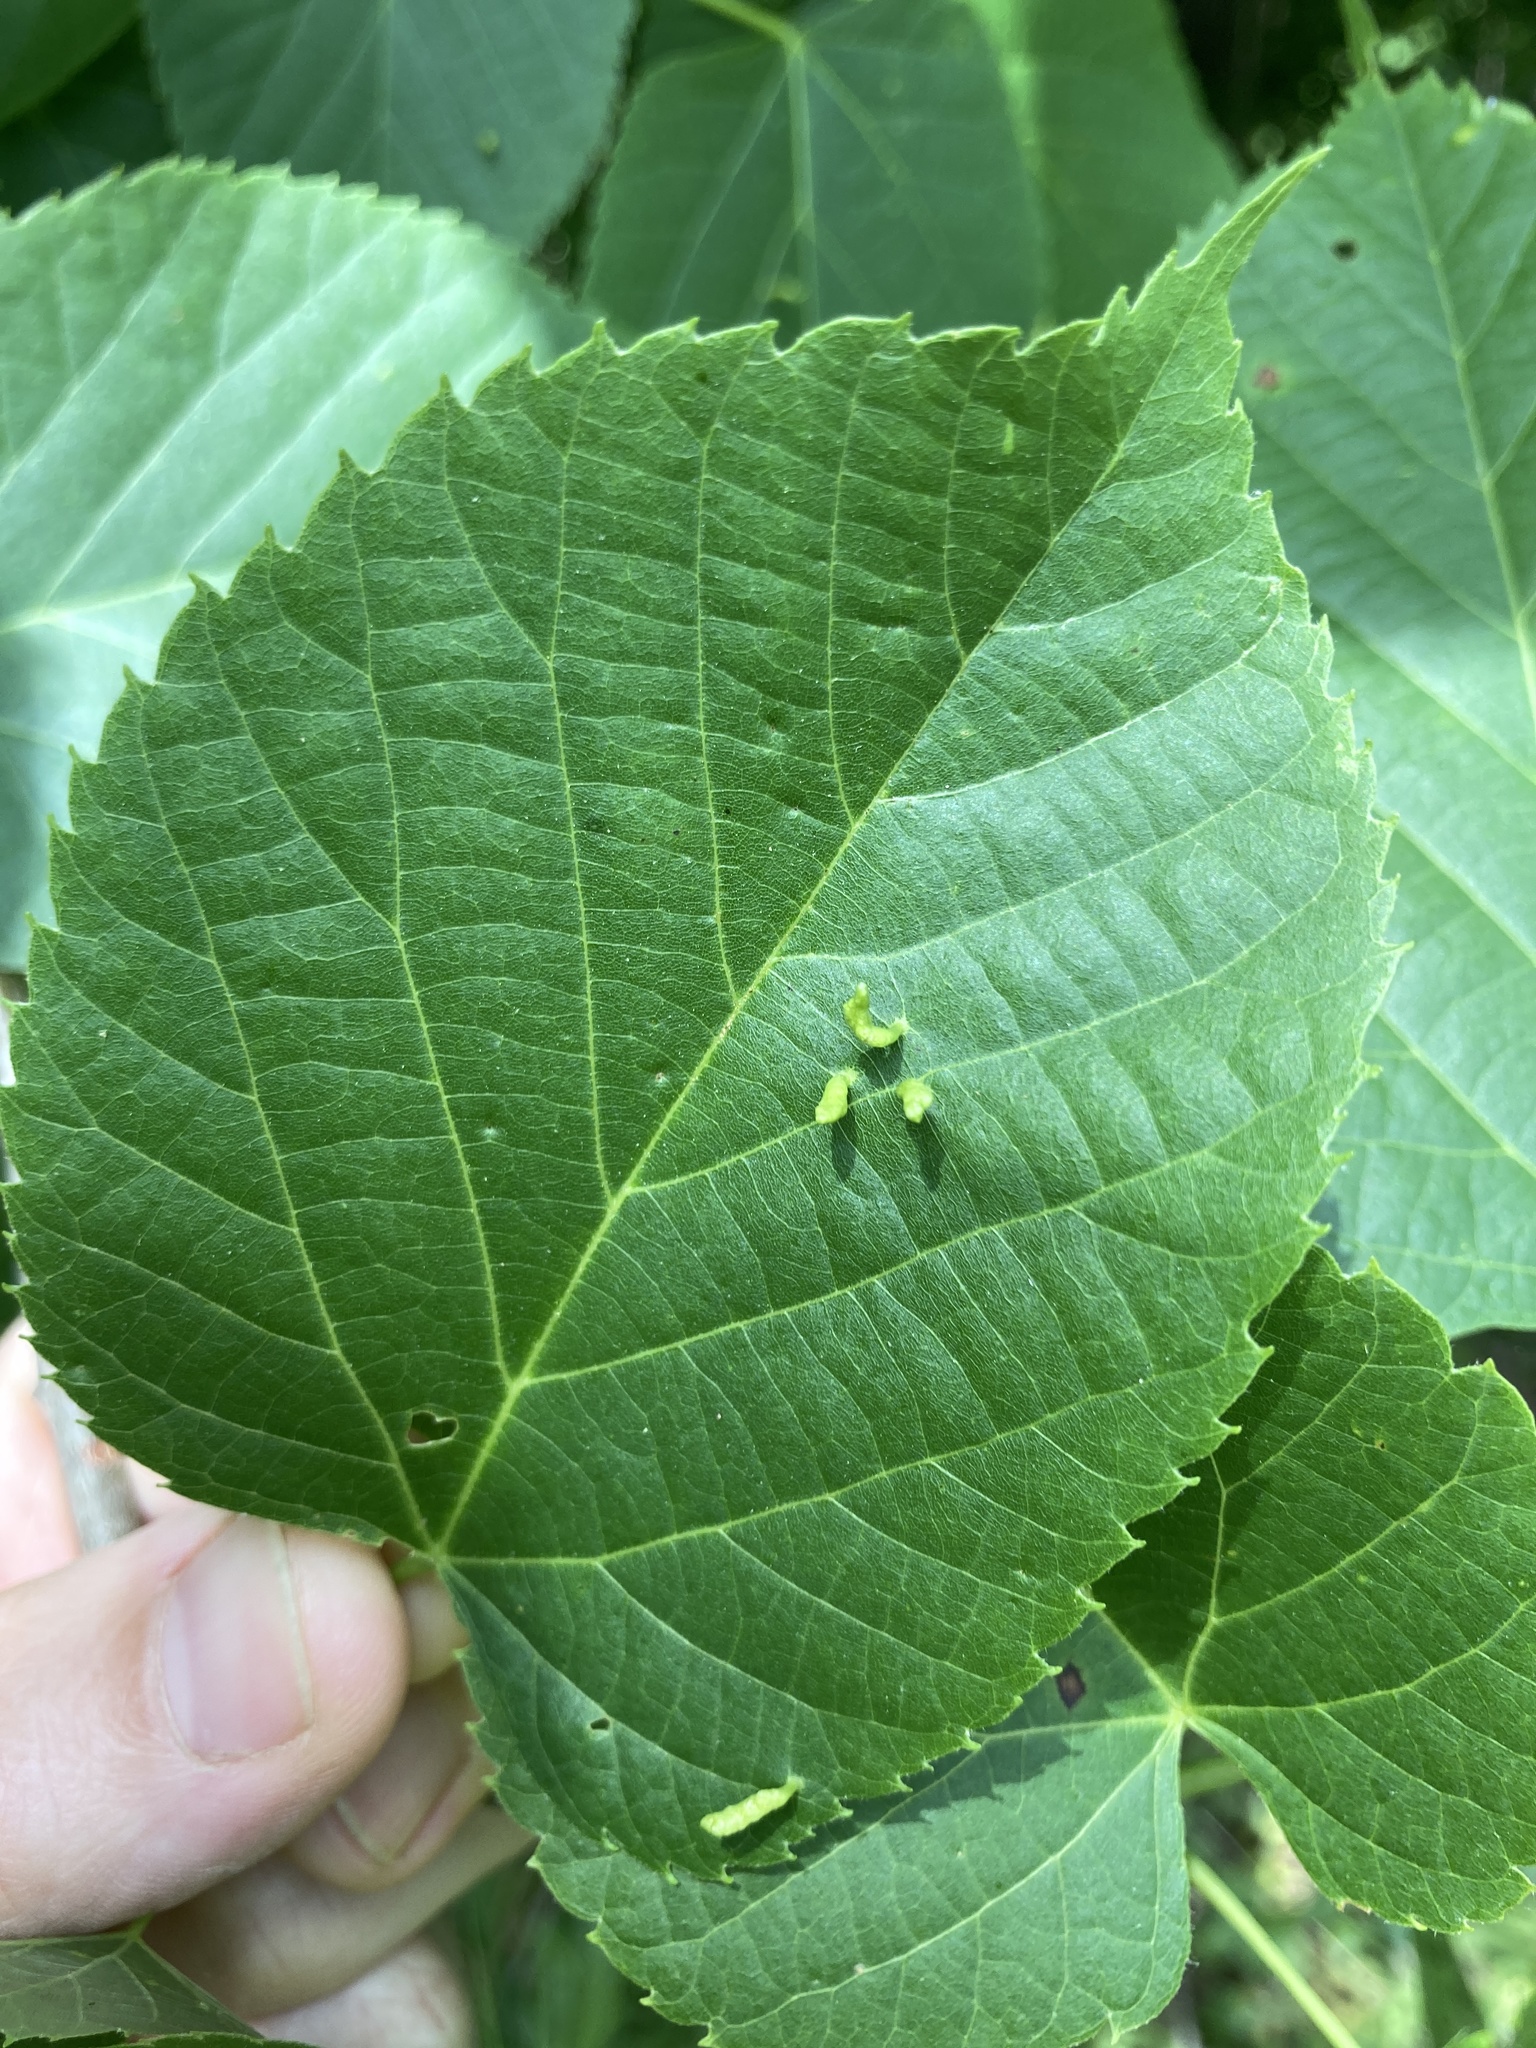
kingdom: Animalia
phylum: Arthropoda
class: Arachnida
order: Trombidiformes
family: Eriophyidae
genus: Eriophyes
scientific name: Eriophyes tiliae
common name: Red nail gall mite
